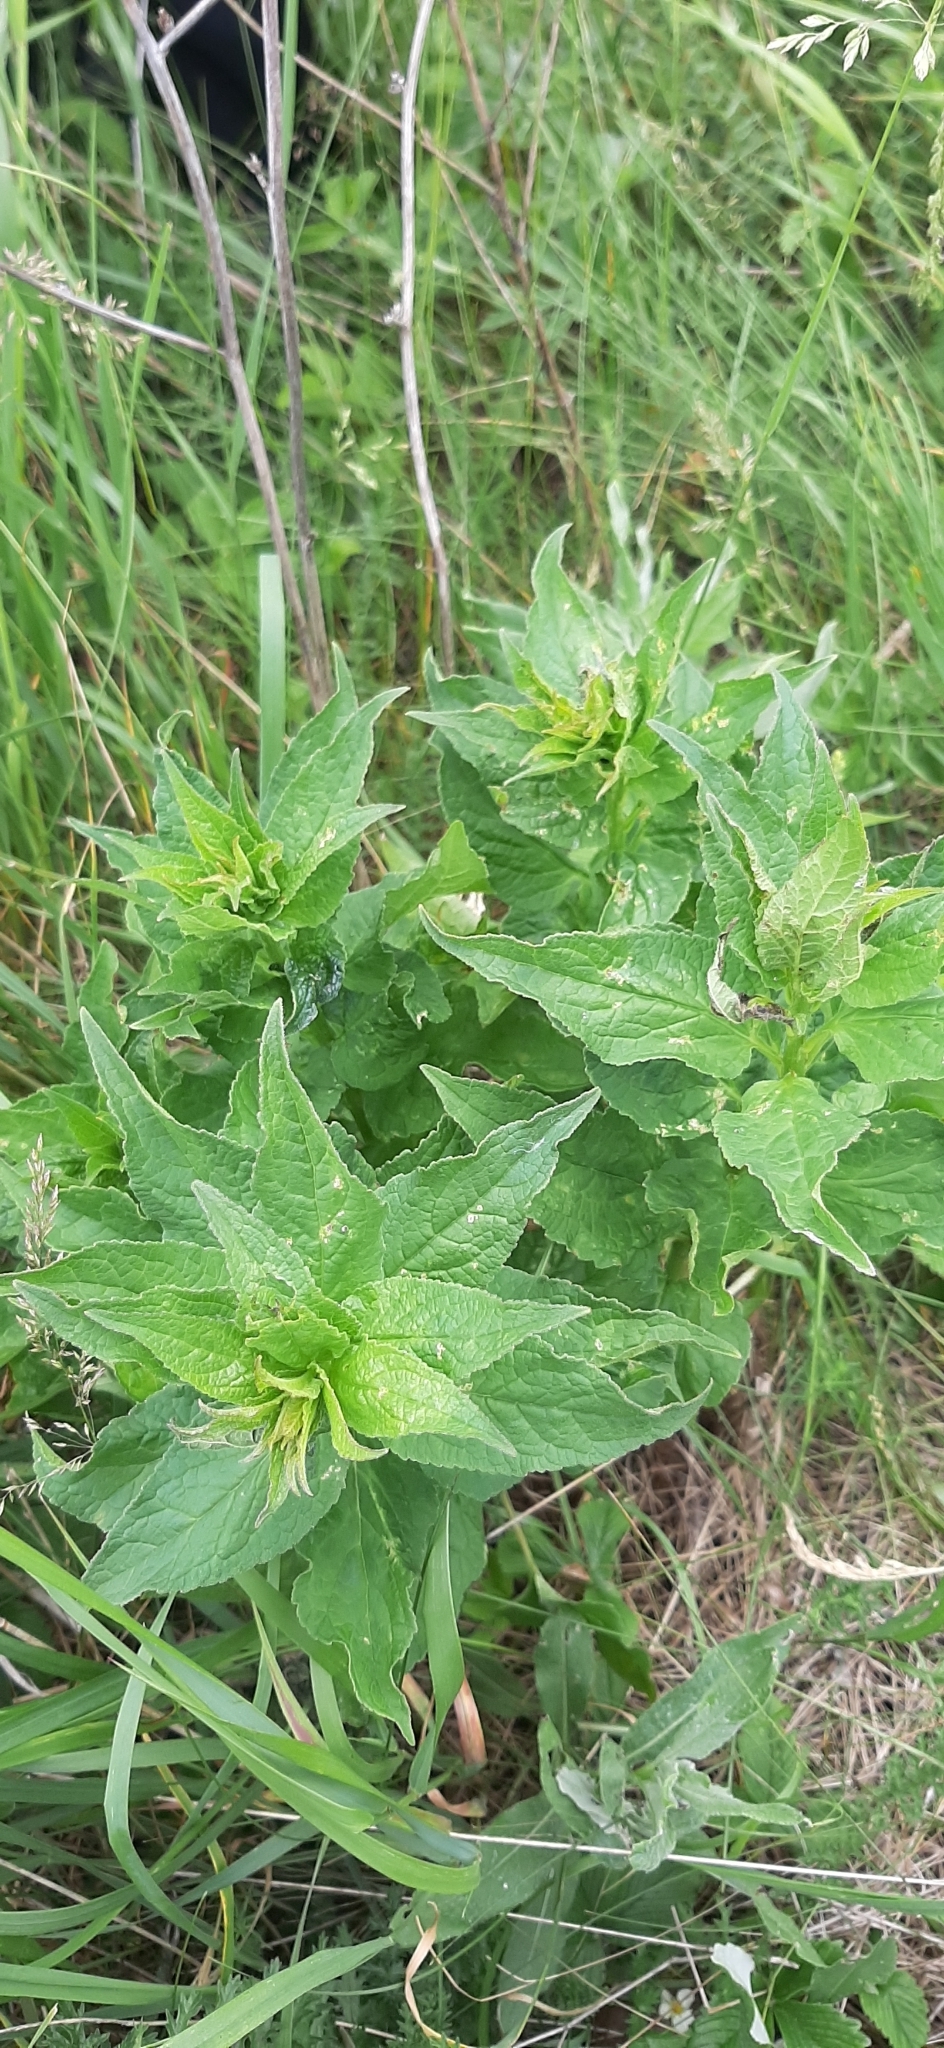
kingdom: Plantae
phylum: Tracheophyta
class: Magnoliopsida
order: Asterales
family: Campanulaceae
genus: Campanula
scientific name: Campanula rapunculoides
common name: Creeping bellflower
